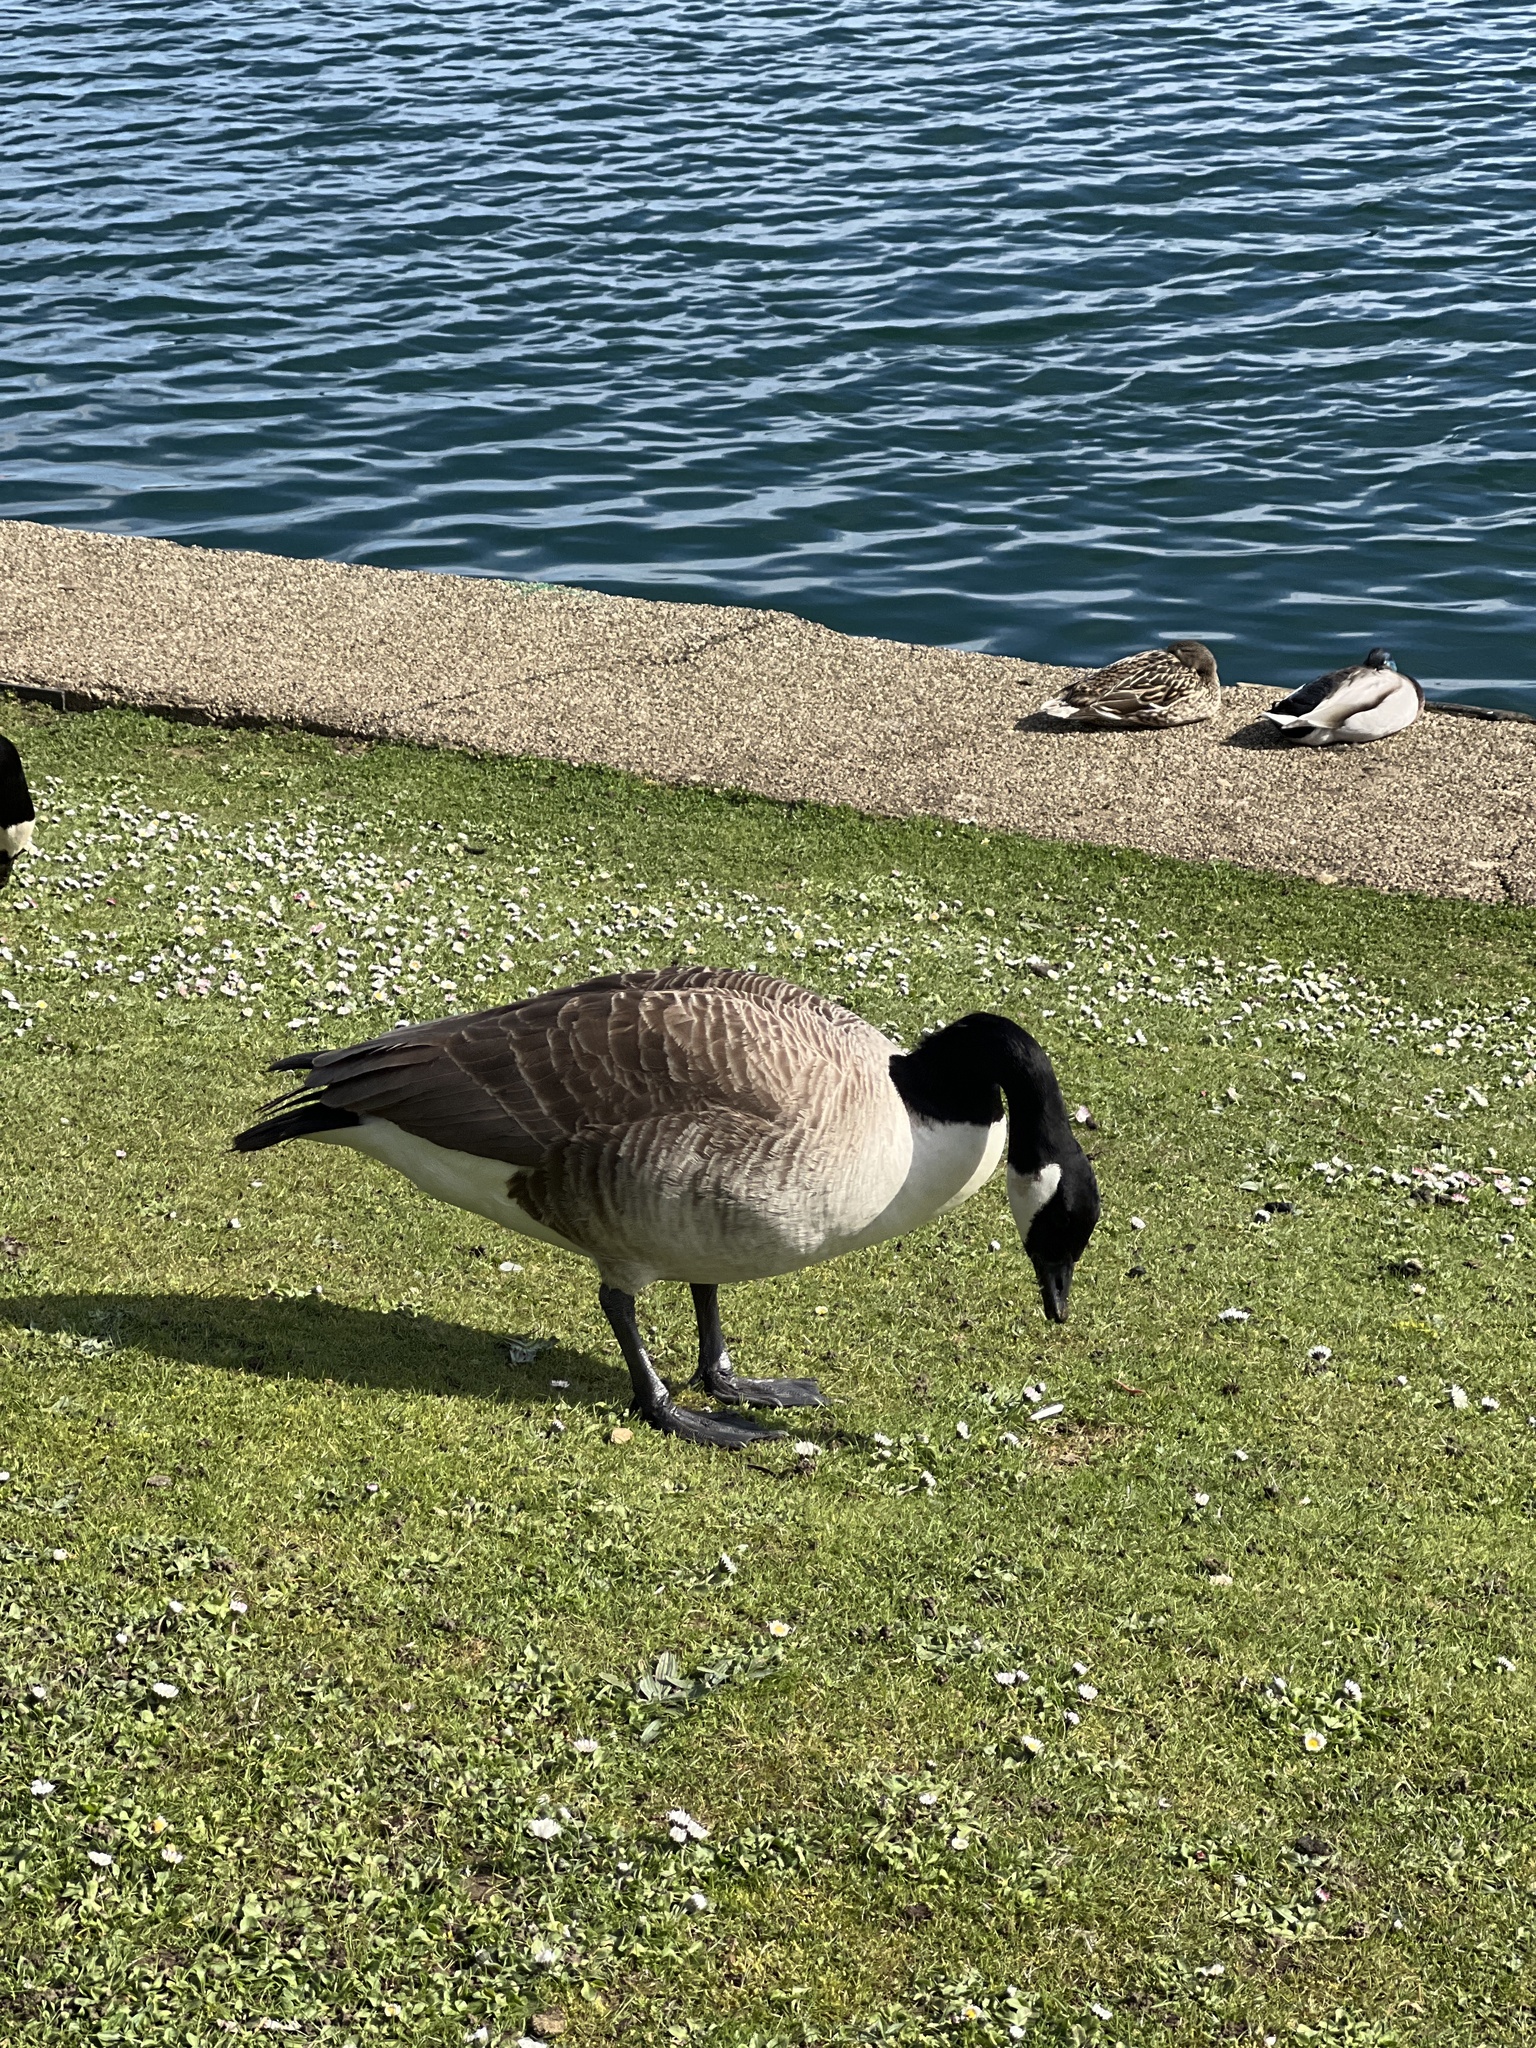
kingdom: Animalia
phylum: Chordata
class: Aves
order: Anseriformes
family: Anatidae
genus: Branta
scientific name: Branta canadensis
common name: Canada goose
